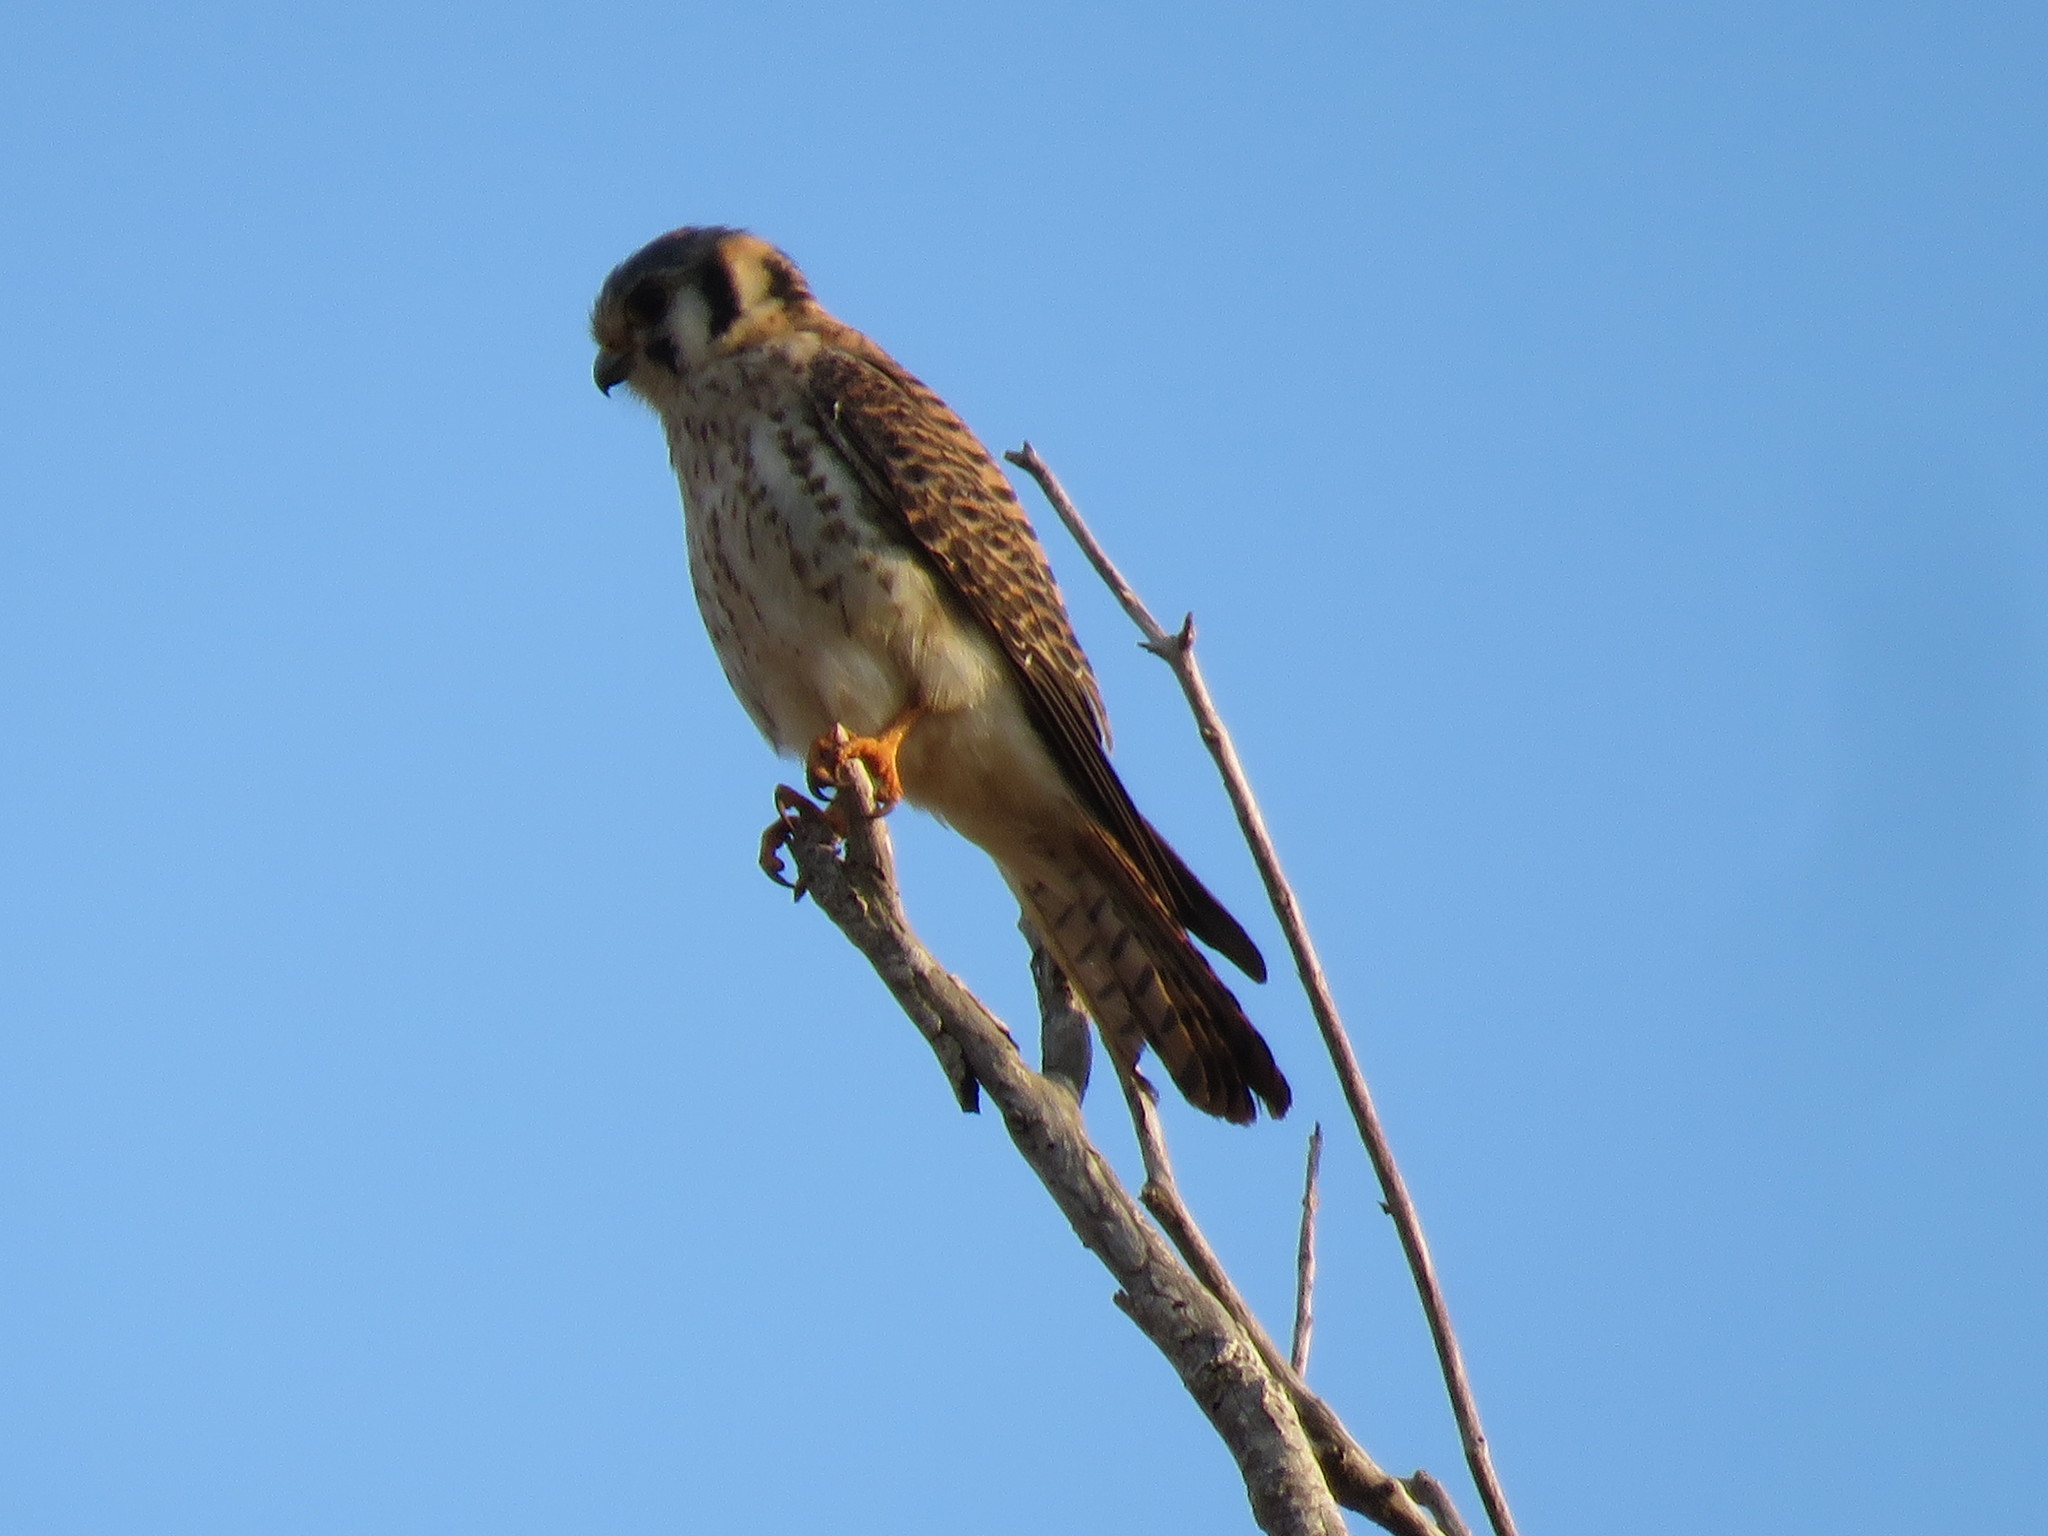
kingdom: Animalia
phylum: Chordata
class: Aves
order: Falconiformes
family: Falconidae
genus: Falco
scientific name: Falco sparverius
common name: American kestrel
